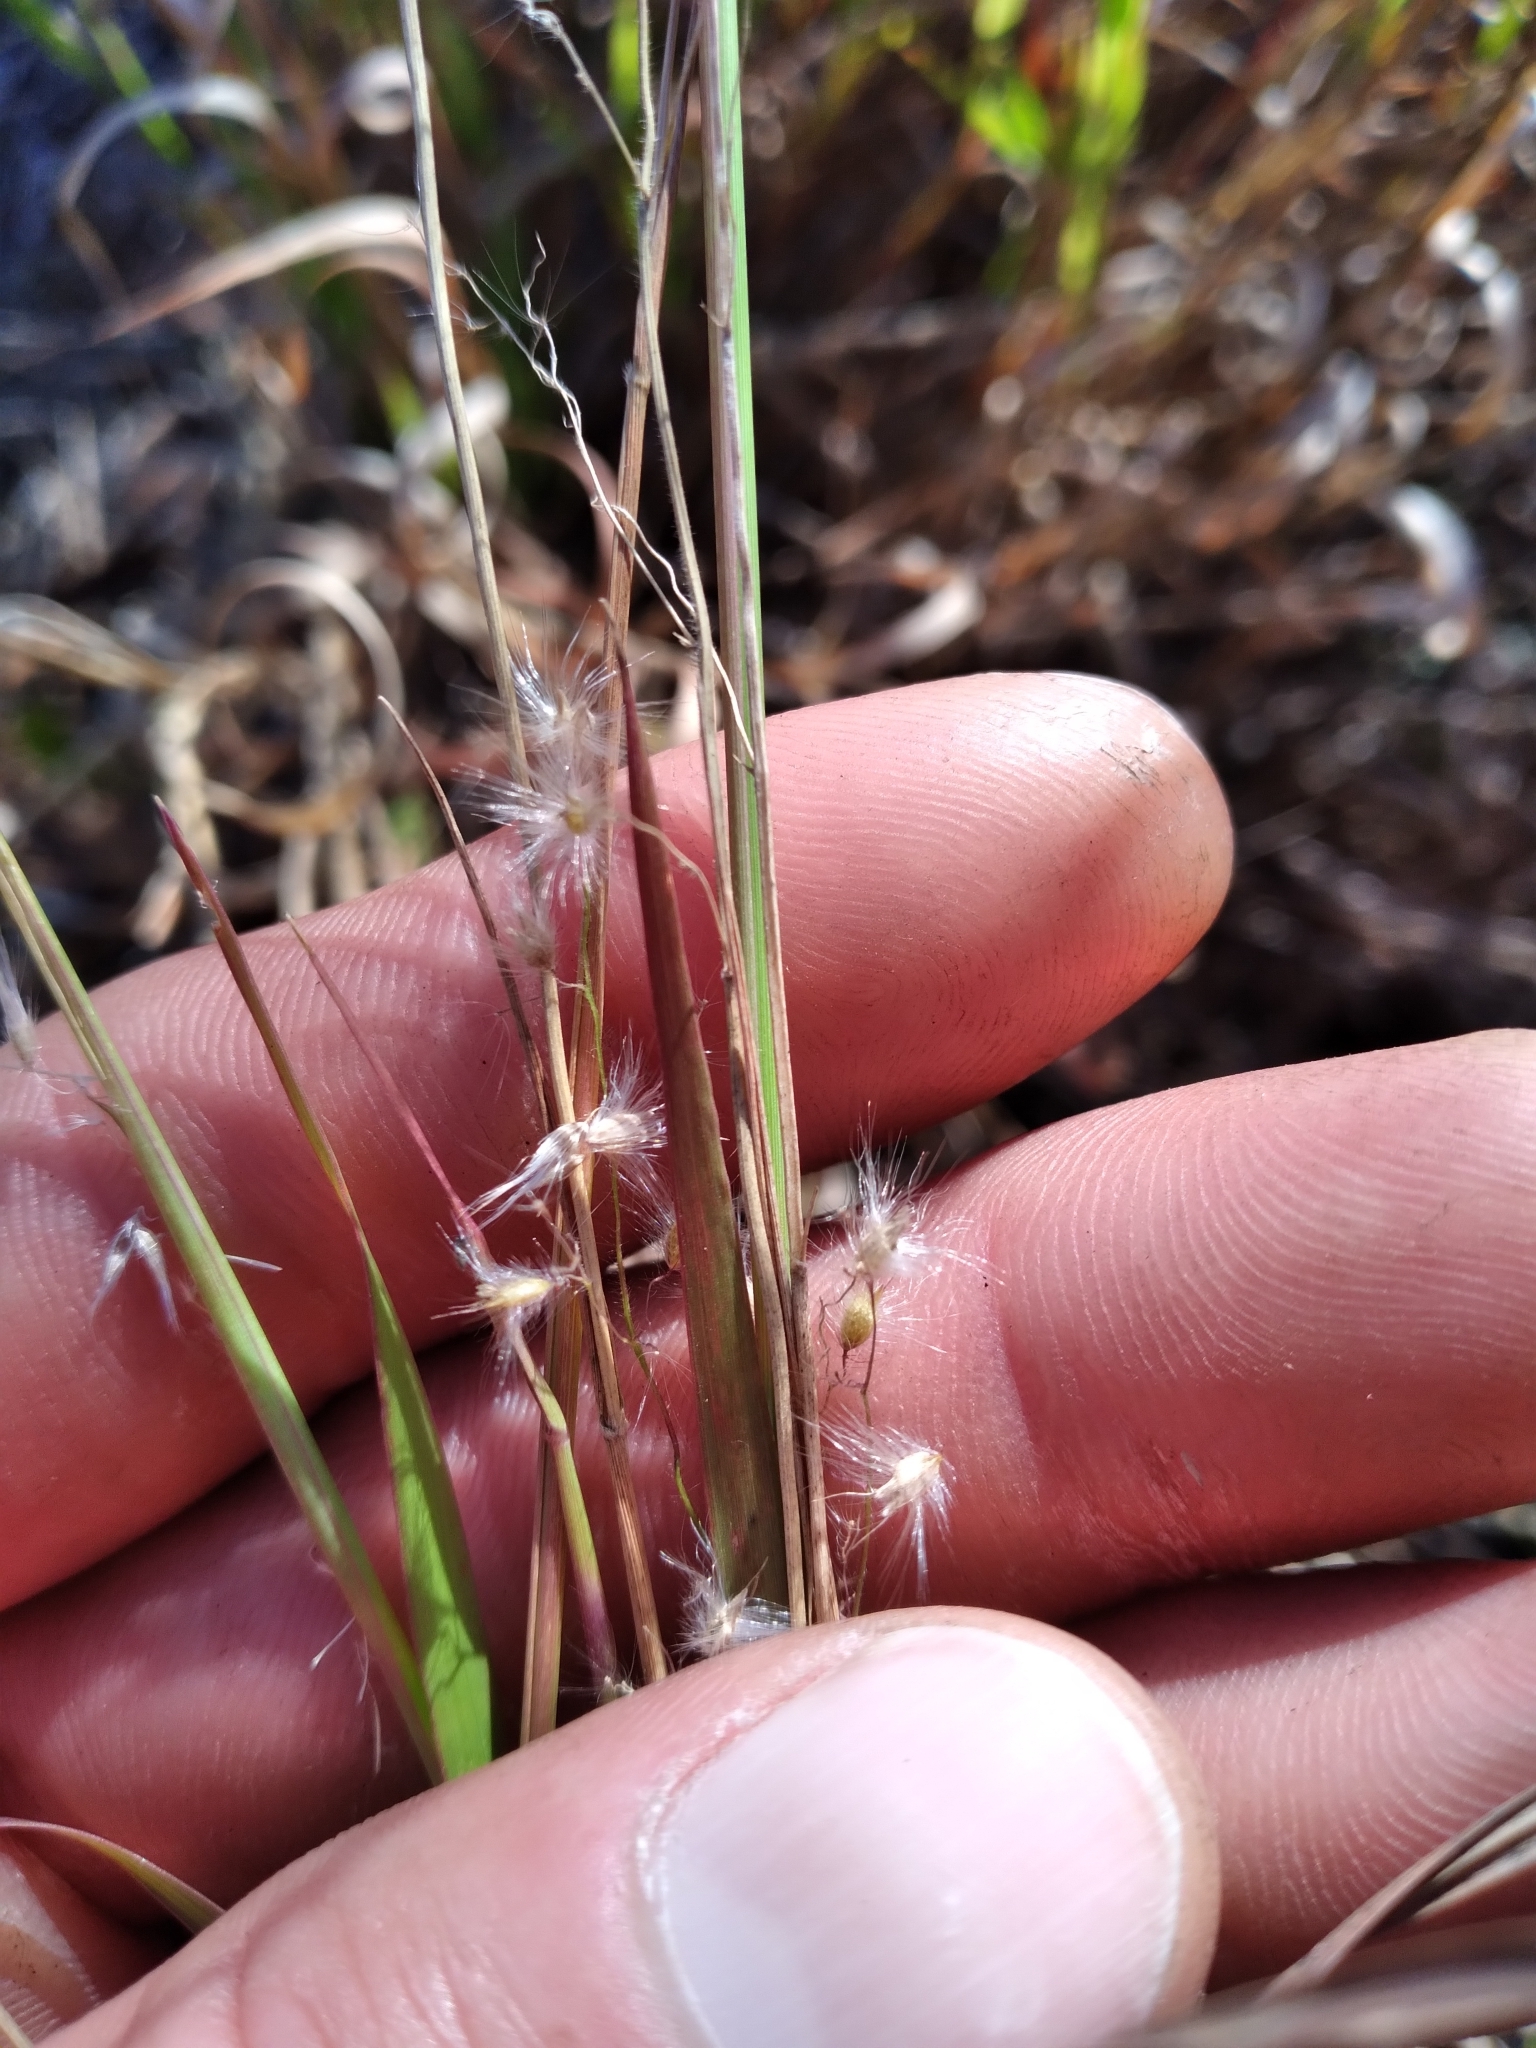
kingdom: Plantae
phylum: Tracheophyta
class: Liliopsida
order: Poales
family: Poaceae
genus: Melinis
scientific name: Melinis repens
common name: Rose natal grass
